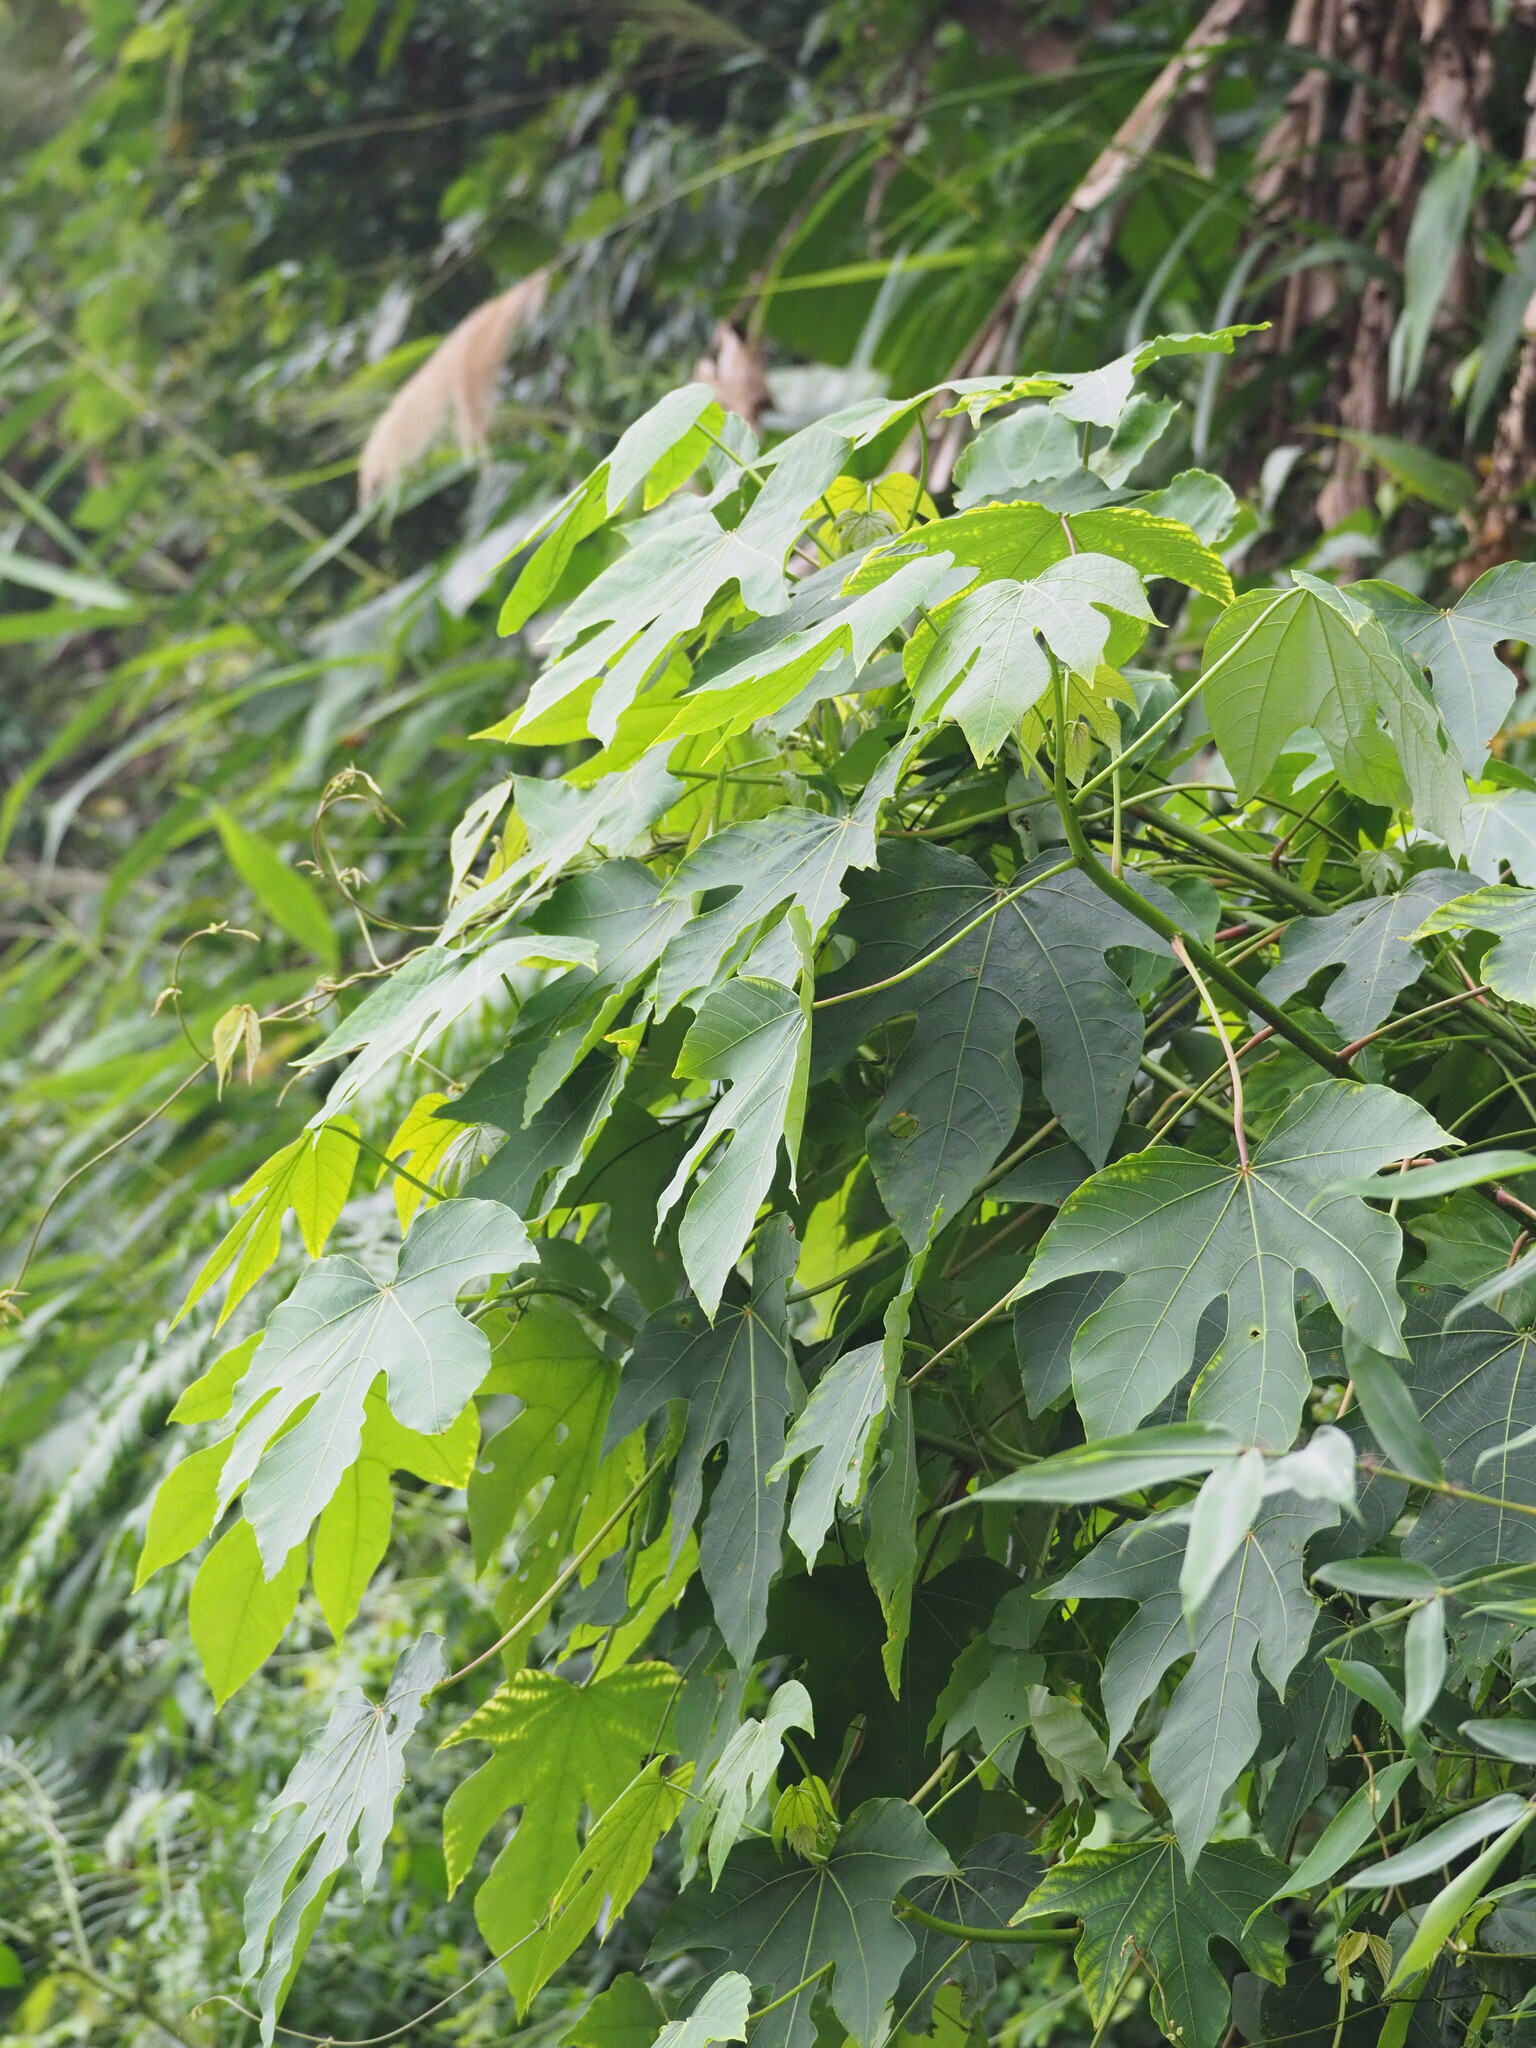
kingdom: Plantae
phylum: Tracheophyta
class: Magnoliopsida
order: Malpighiales
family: Euphorbiaceae
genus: Vernicia
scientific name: Vernicia montana
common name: Mu oil tree
